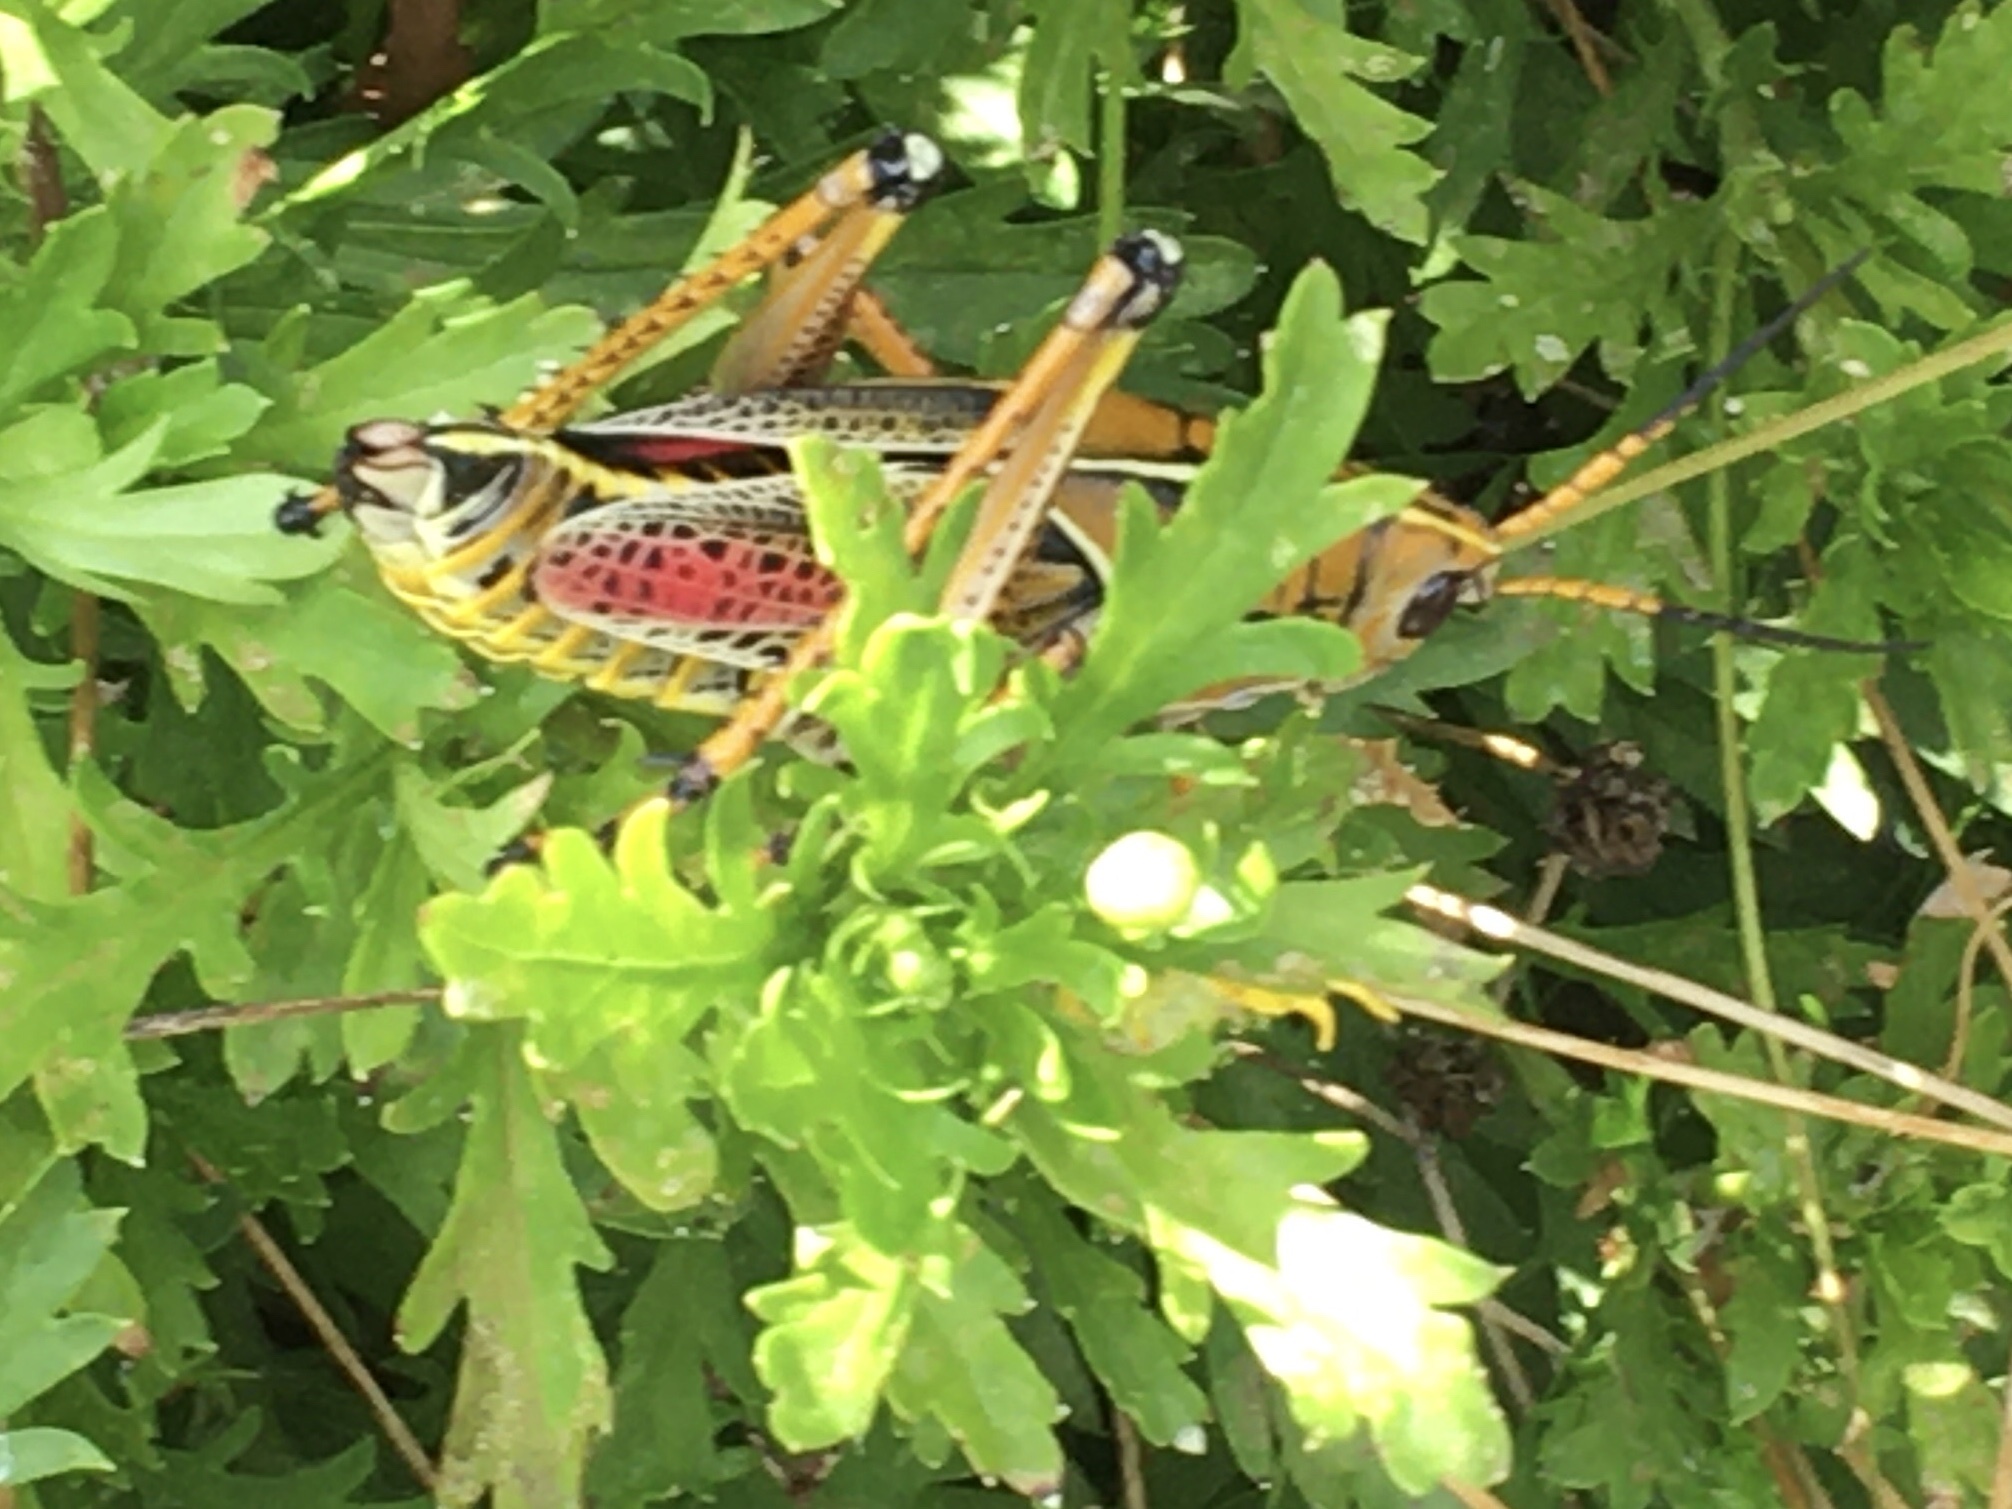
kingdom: Animalia
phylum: Arthropoda
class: Insecta
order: Orthoptera
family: Romaleidae
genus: Romalea
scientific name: Romalea microptera
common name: Eastern lubber grasshopper
